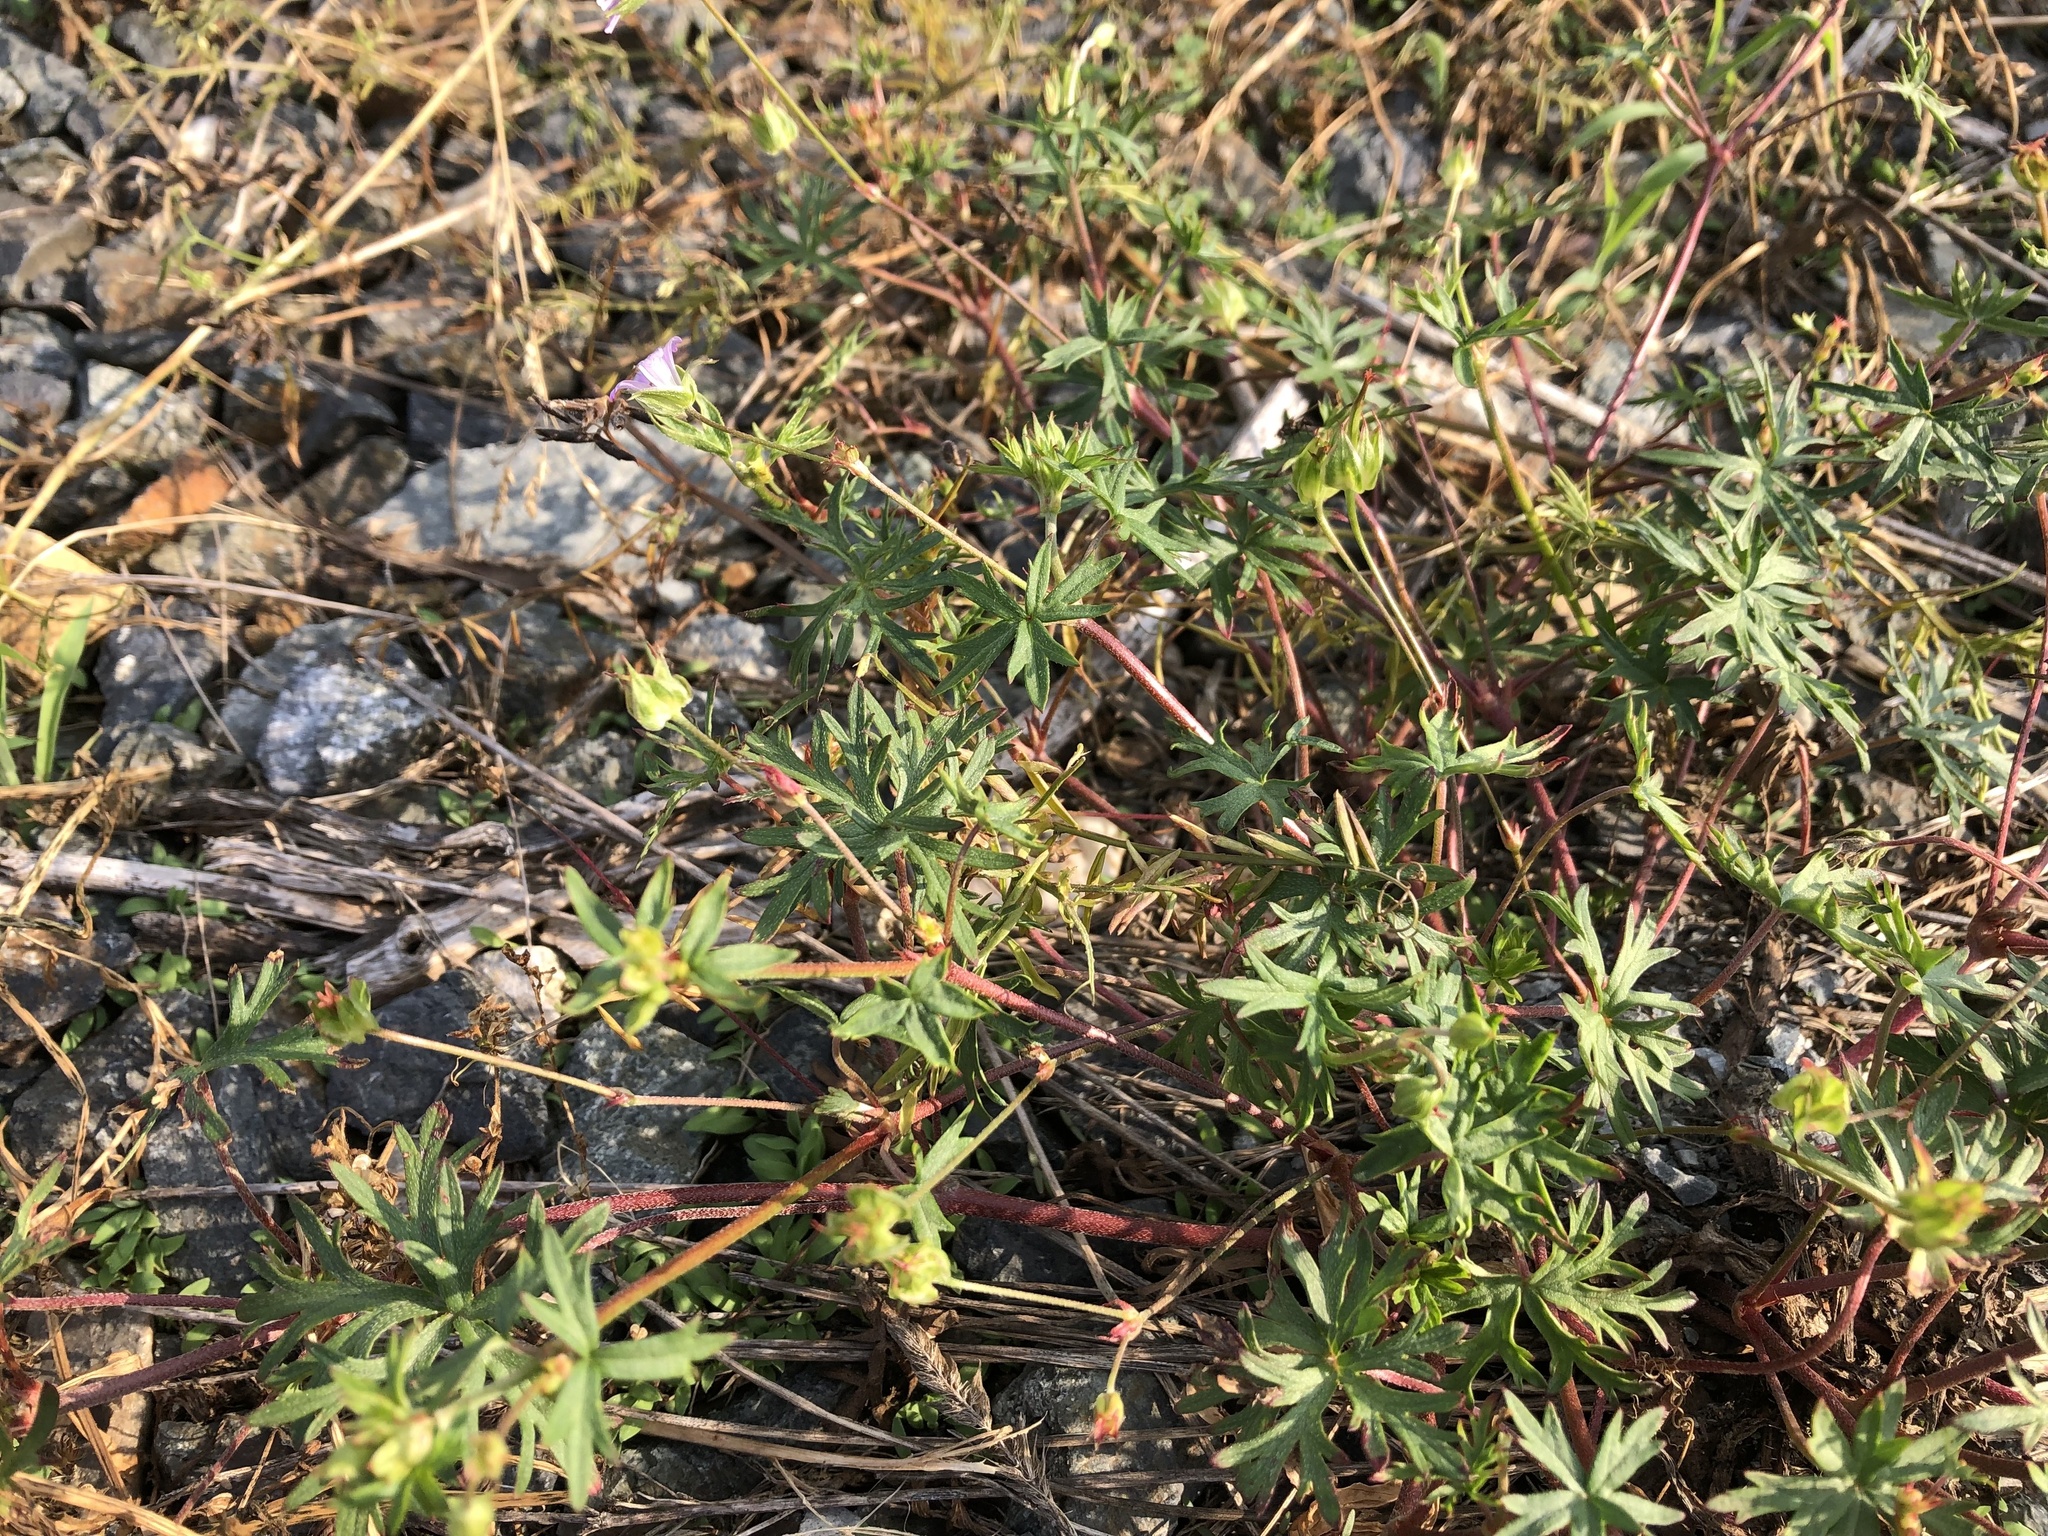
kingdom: Plantae
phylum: Tracheophyta
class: Magnoliopsida
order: Geraniales
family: Geraniaceae
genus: Geranium
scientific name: Geranium columbinum
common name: Long-stalked crane's-bill
